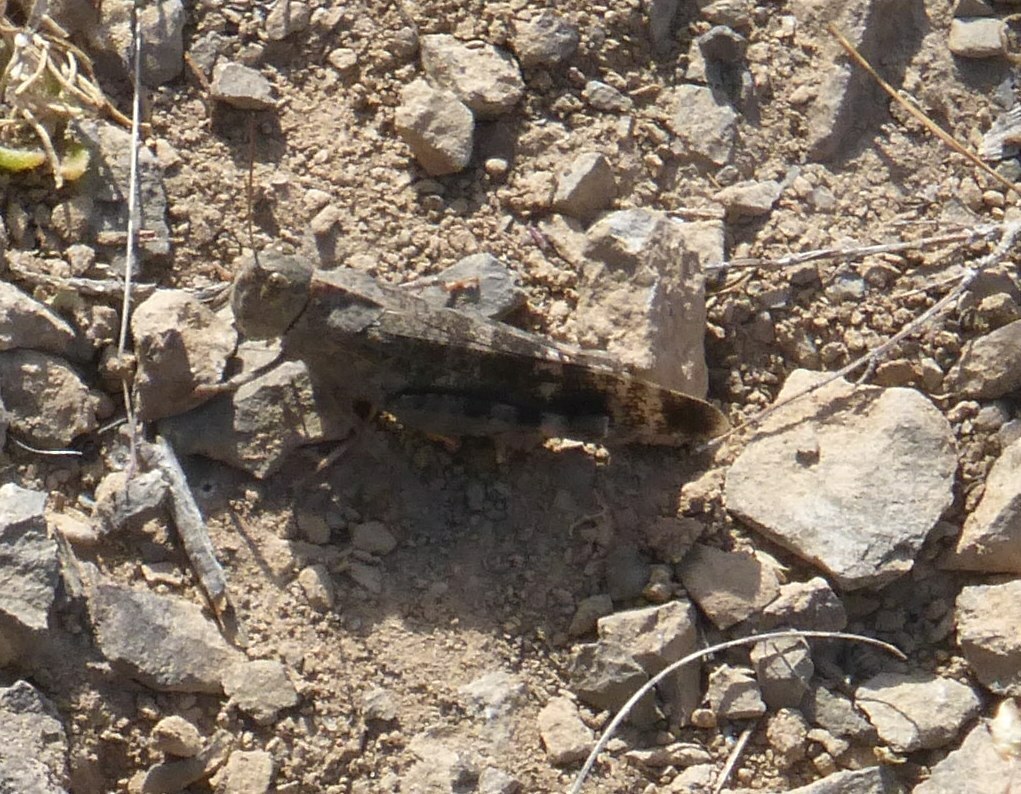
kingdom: Animalia
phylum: Arthropoda
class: Insecta
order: Orthoptera
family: Acrididae
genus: Scintharista
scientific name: Scintharista notabilis
